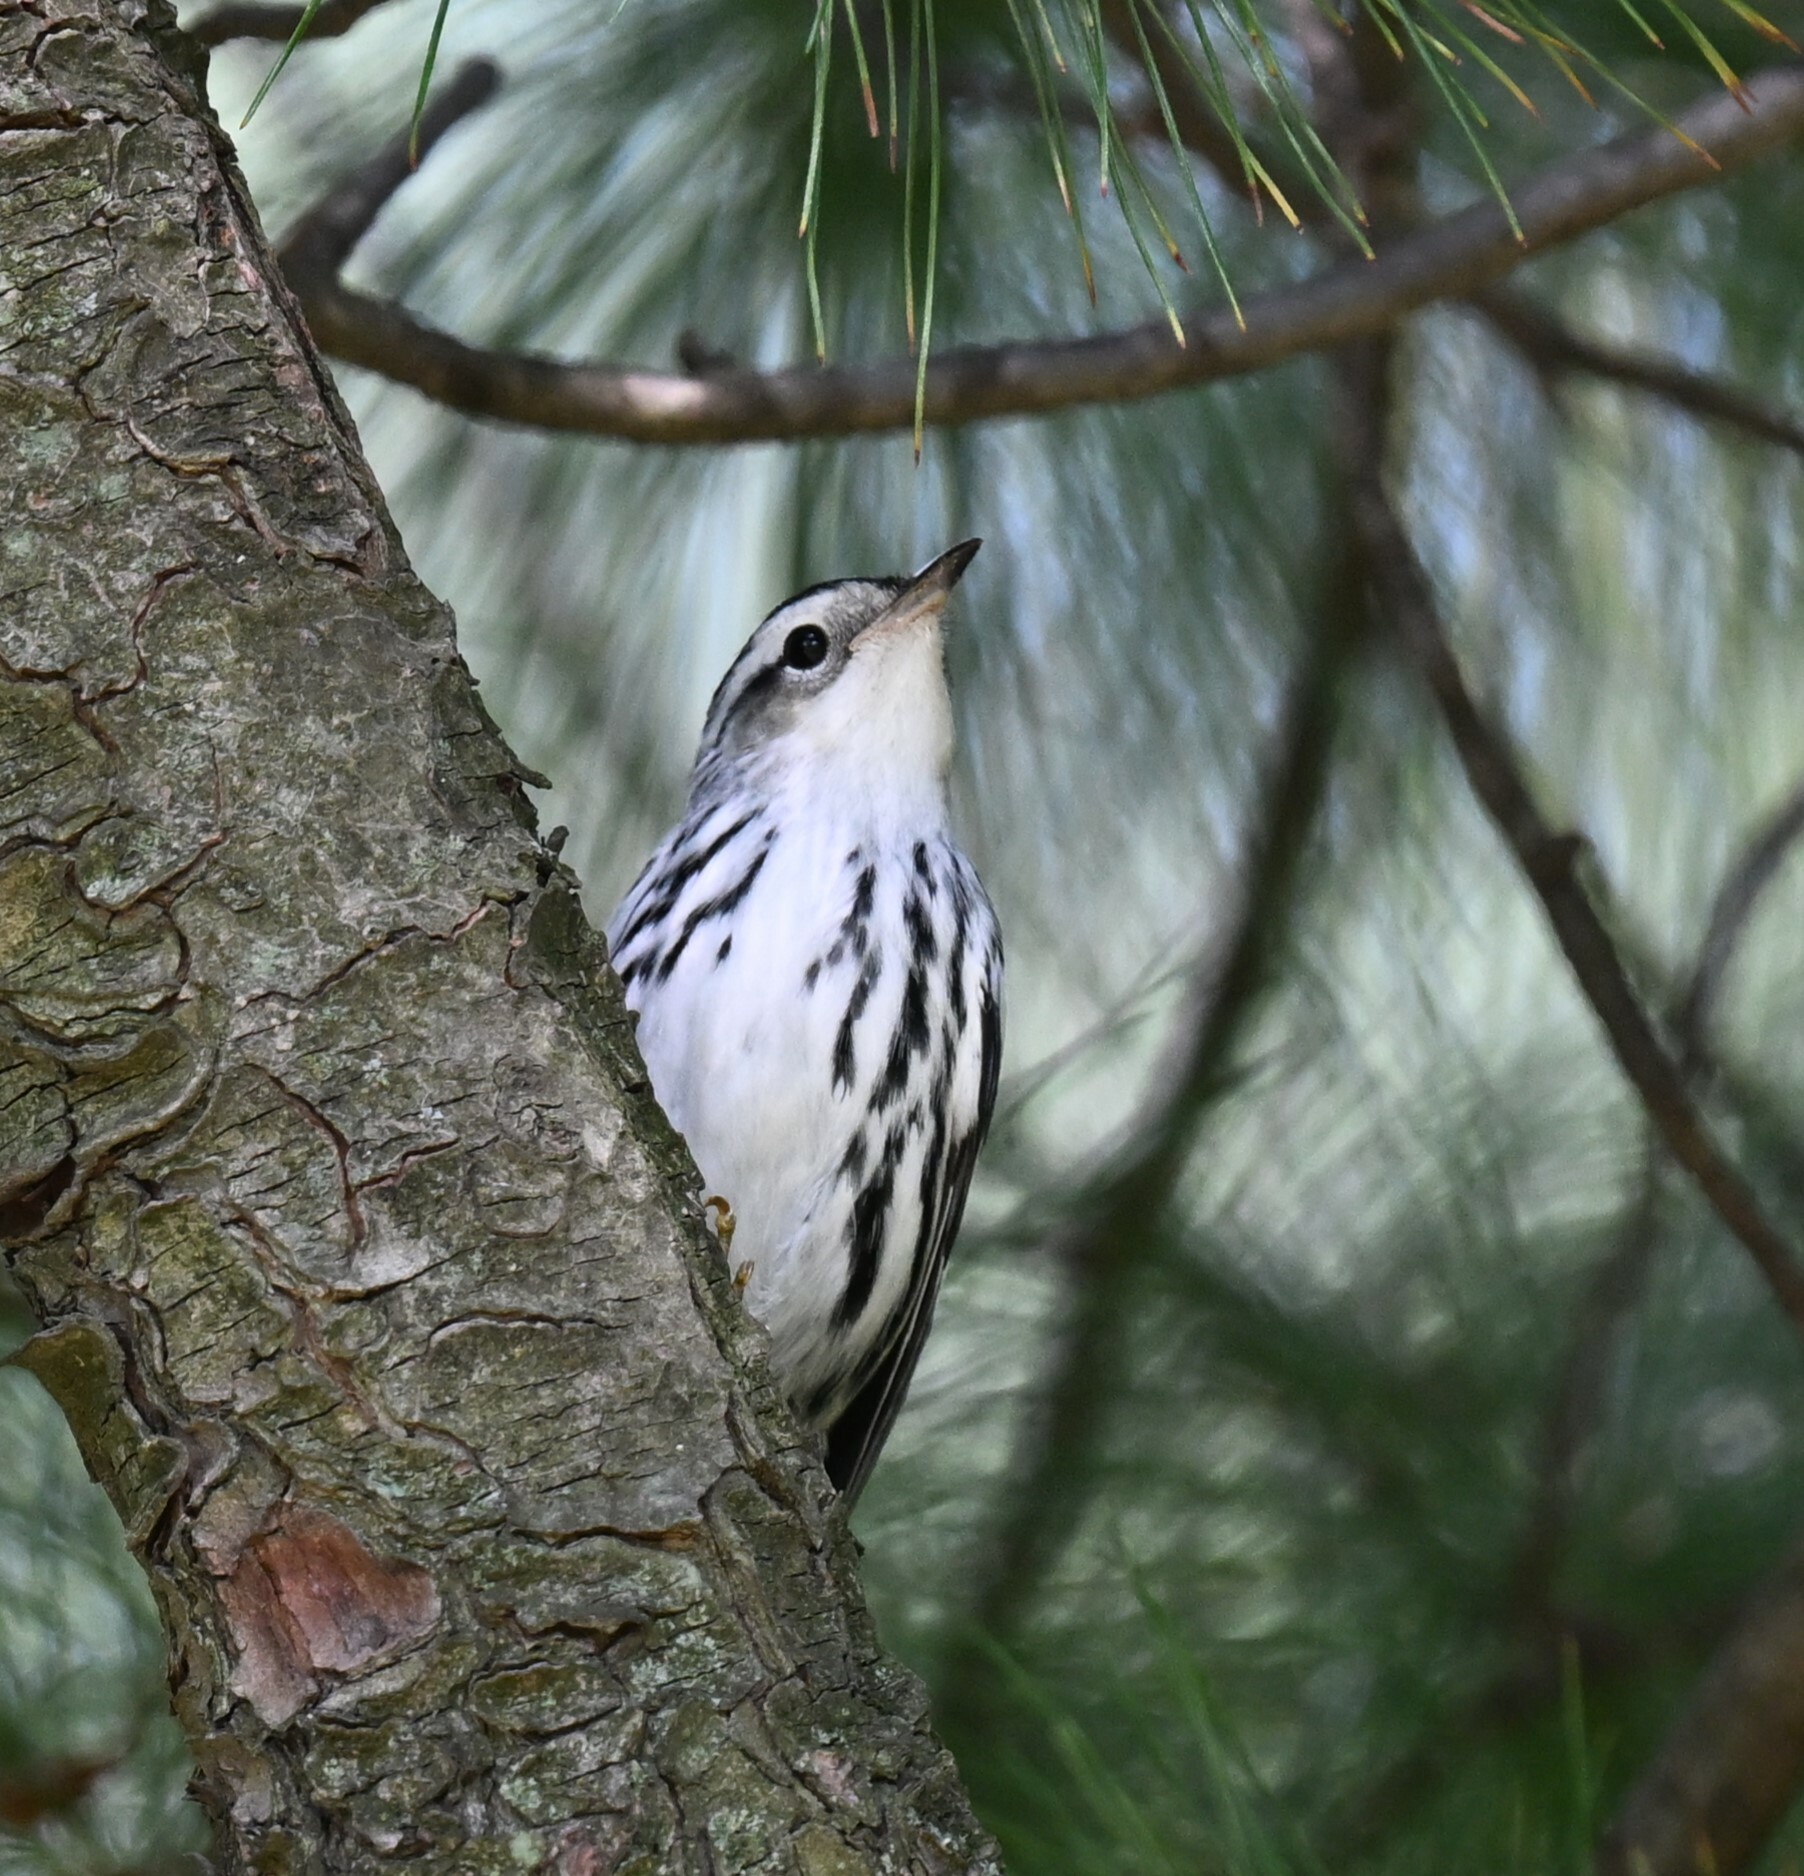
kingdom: Animalia
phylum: Chordata
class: Aves
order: Passeriformes
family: Parulidae
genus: Mniotilta
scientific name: Mniotilta varia
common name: Black-and-white warbler
